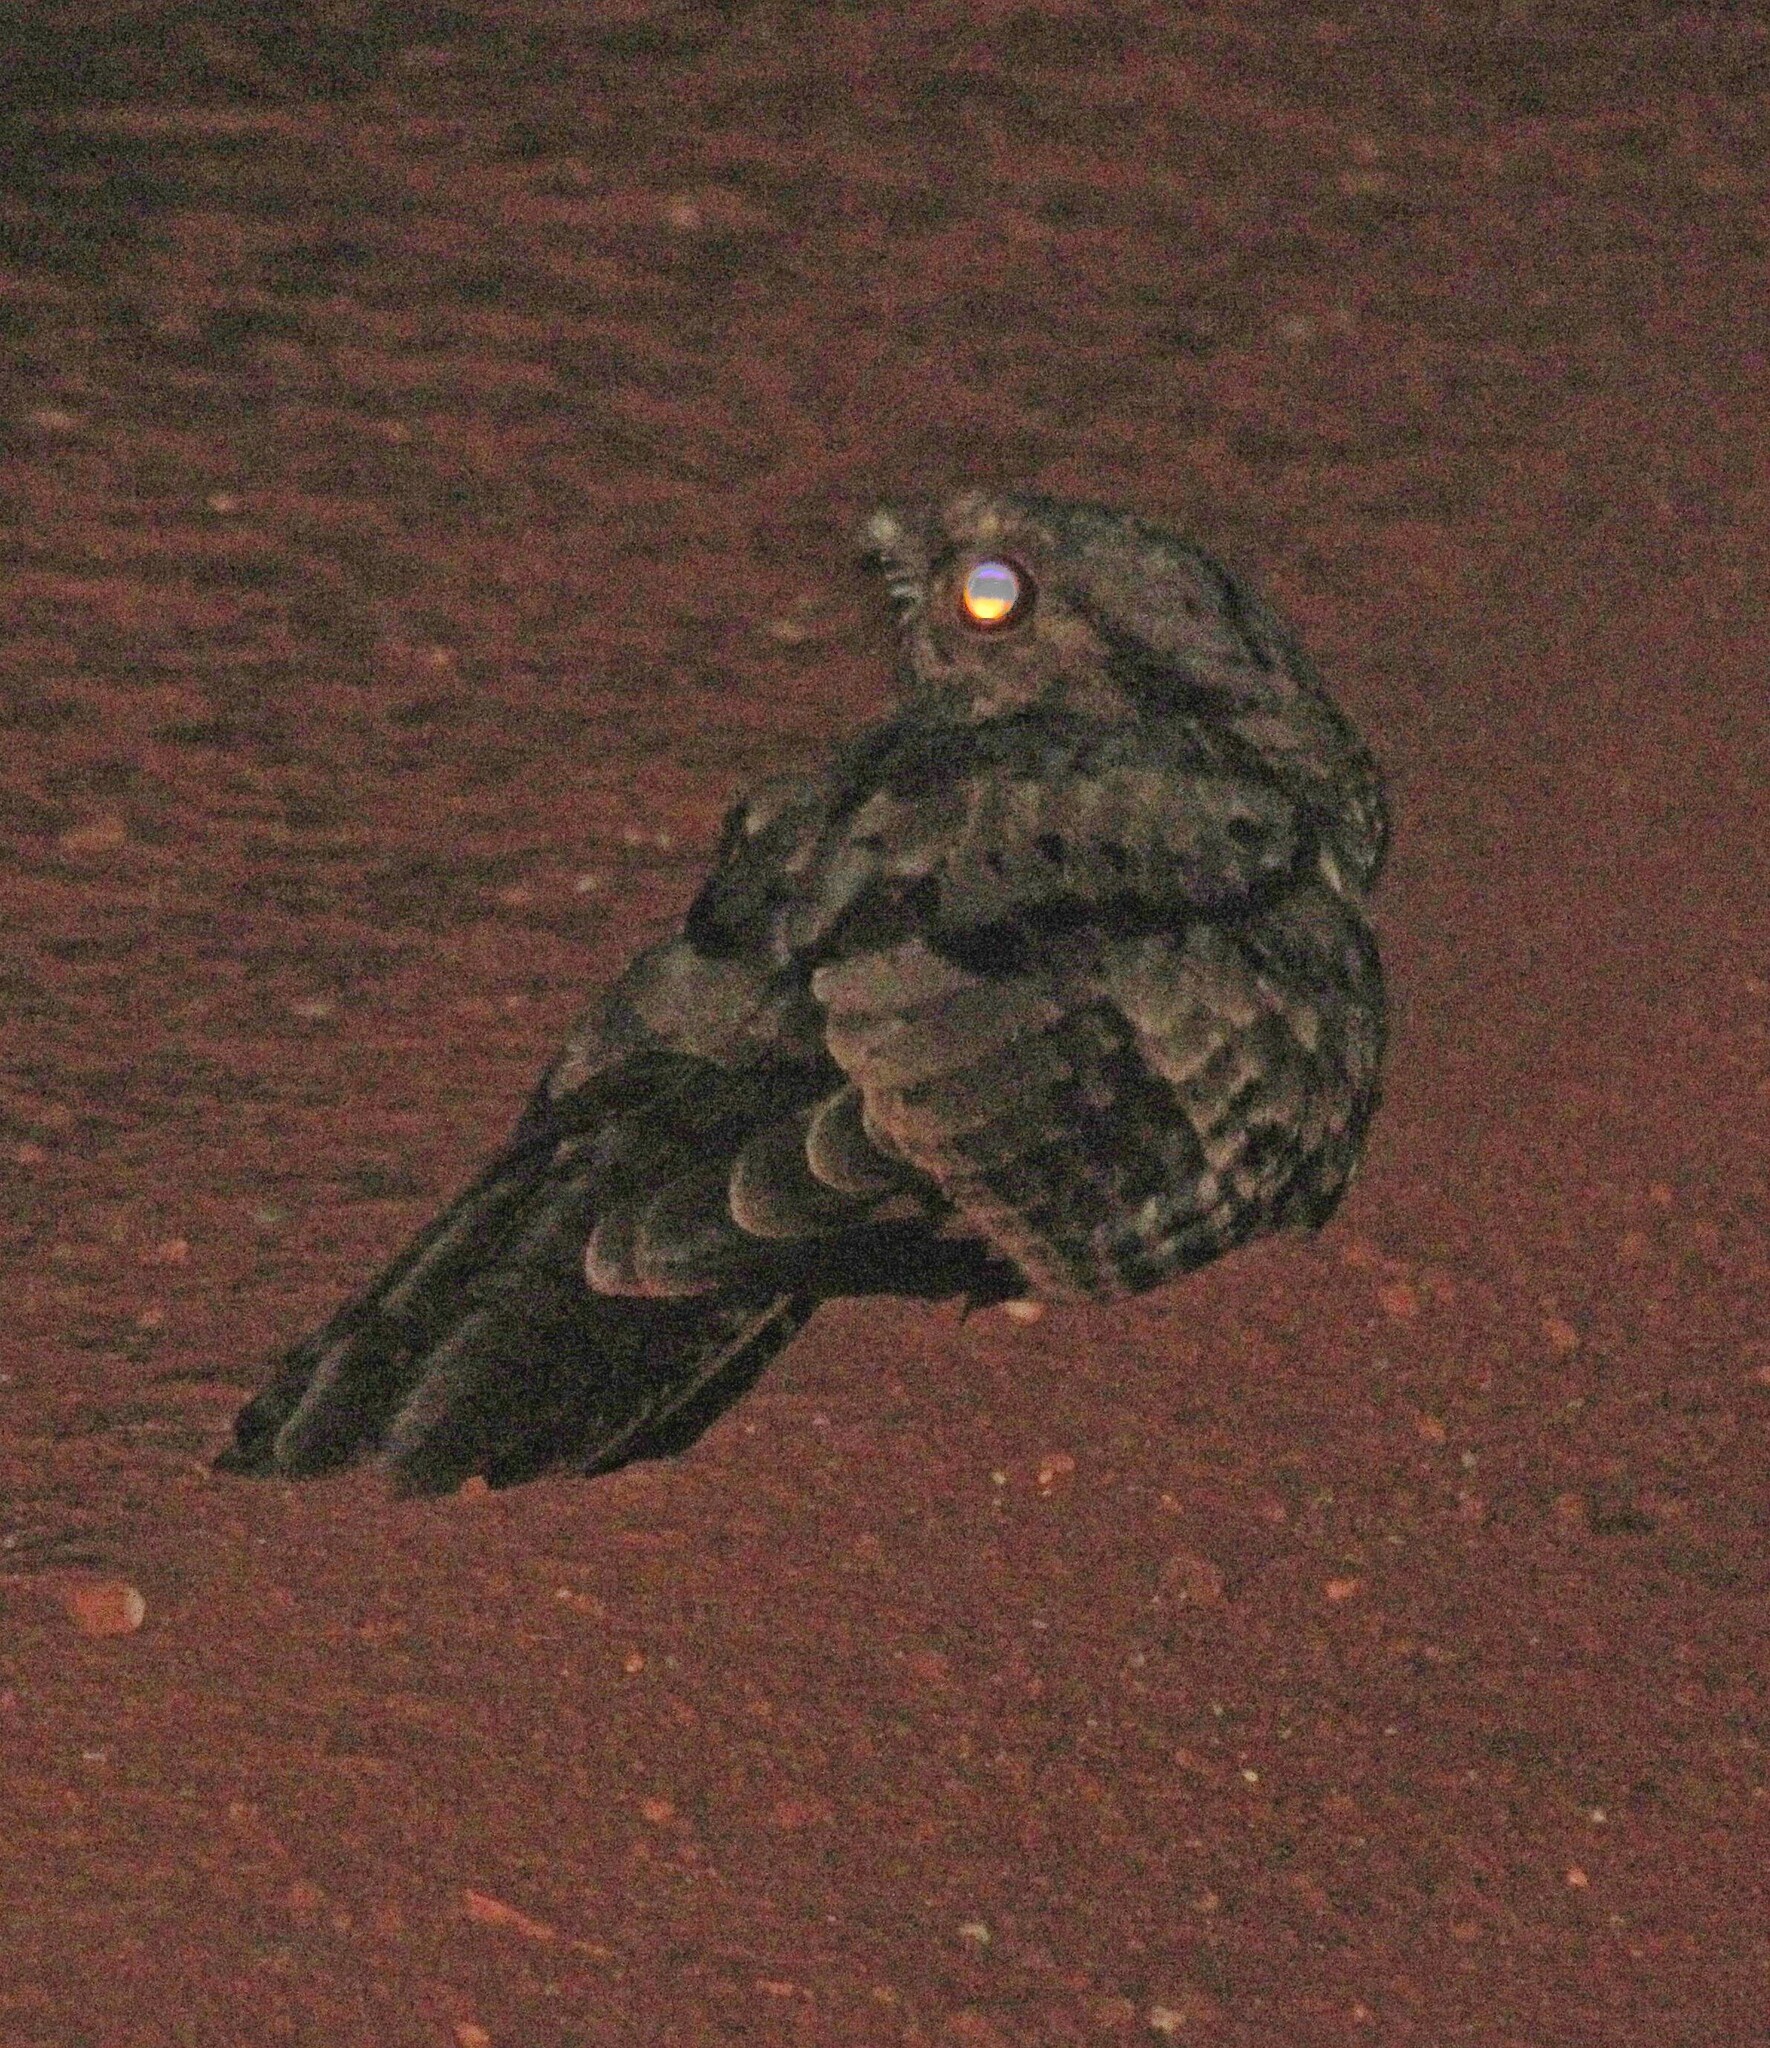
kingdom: Animalia
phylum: Chordata
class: Aves
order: Caprimulgiformes
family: Caprimulgidae
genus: Nyctidromus
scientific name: Nyctidromus albicollis
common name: Pauraque
